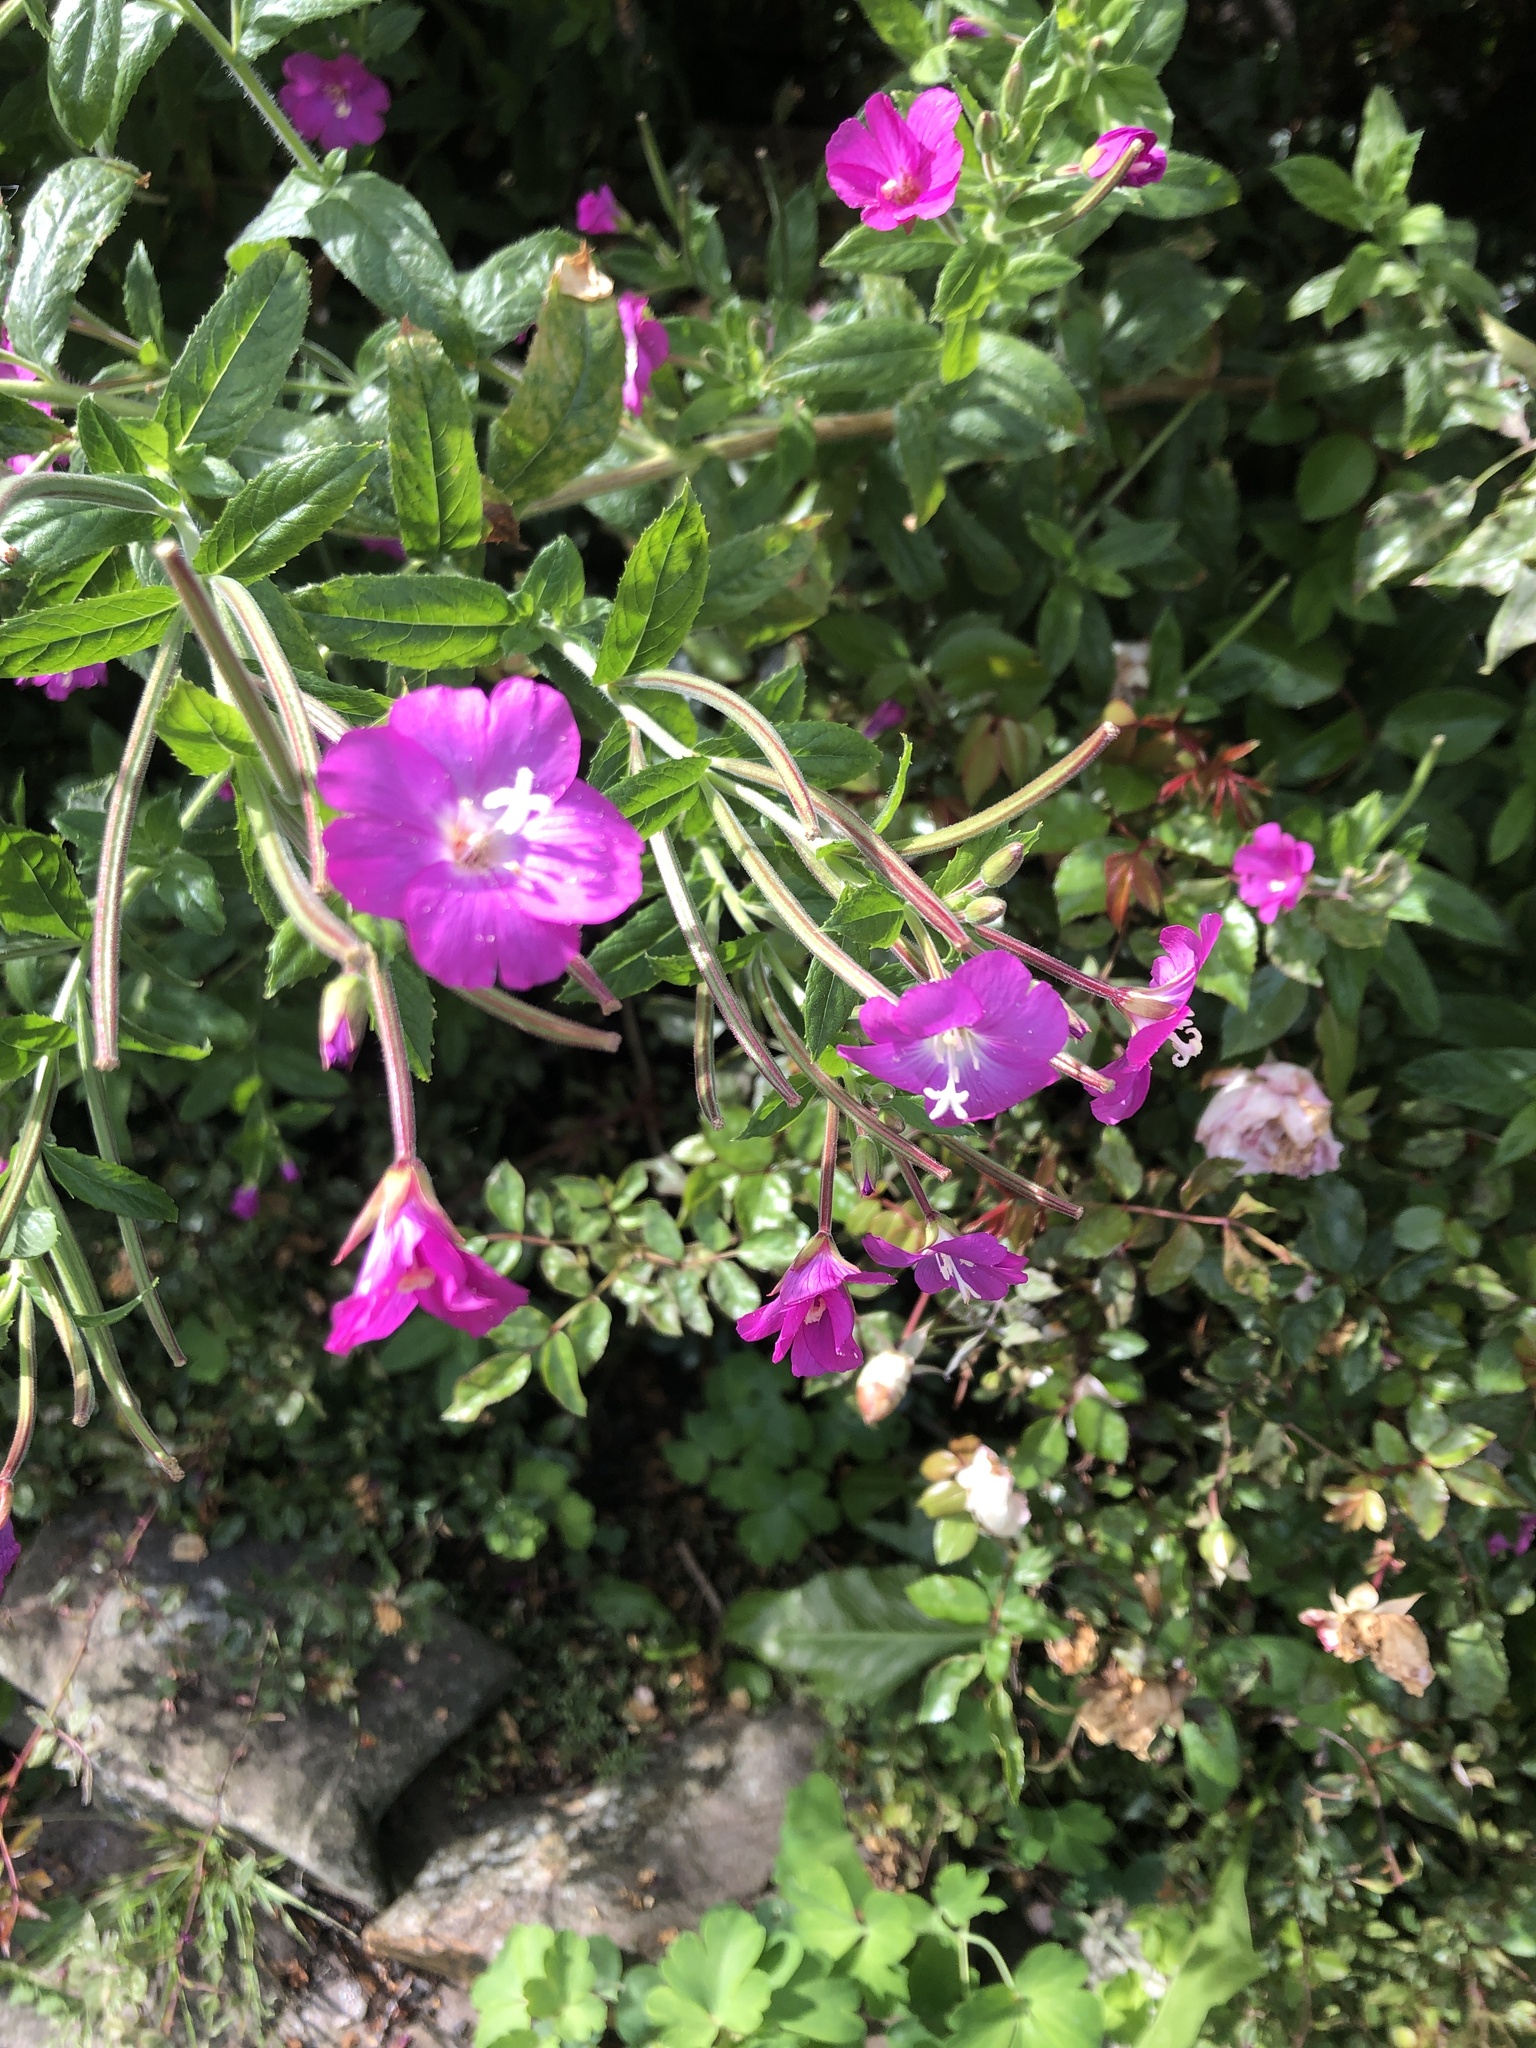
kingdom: Plantae
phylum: Tracheophyta
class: Magnoliopsida
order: Myrtales
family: Onagraceae
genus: Epilobium
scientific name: Epilobium hirsutum
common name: Great willowherb
